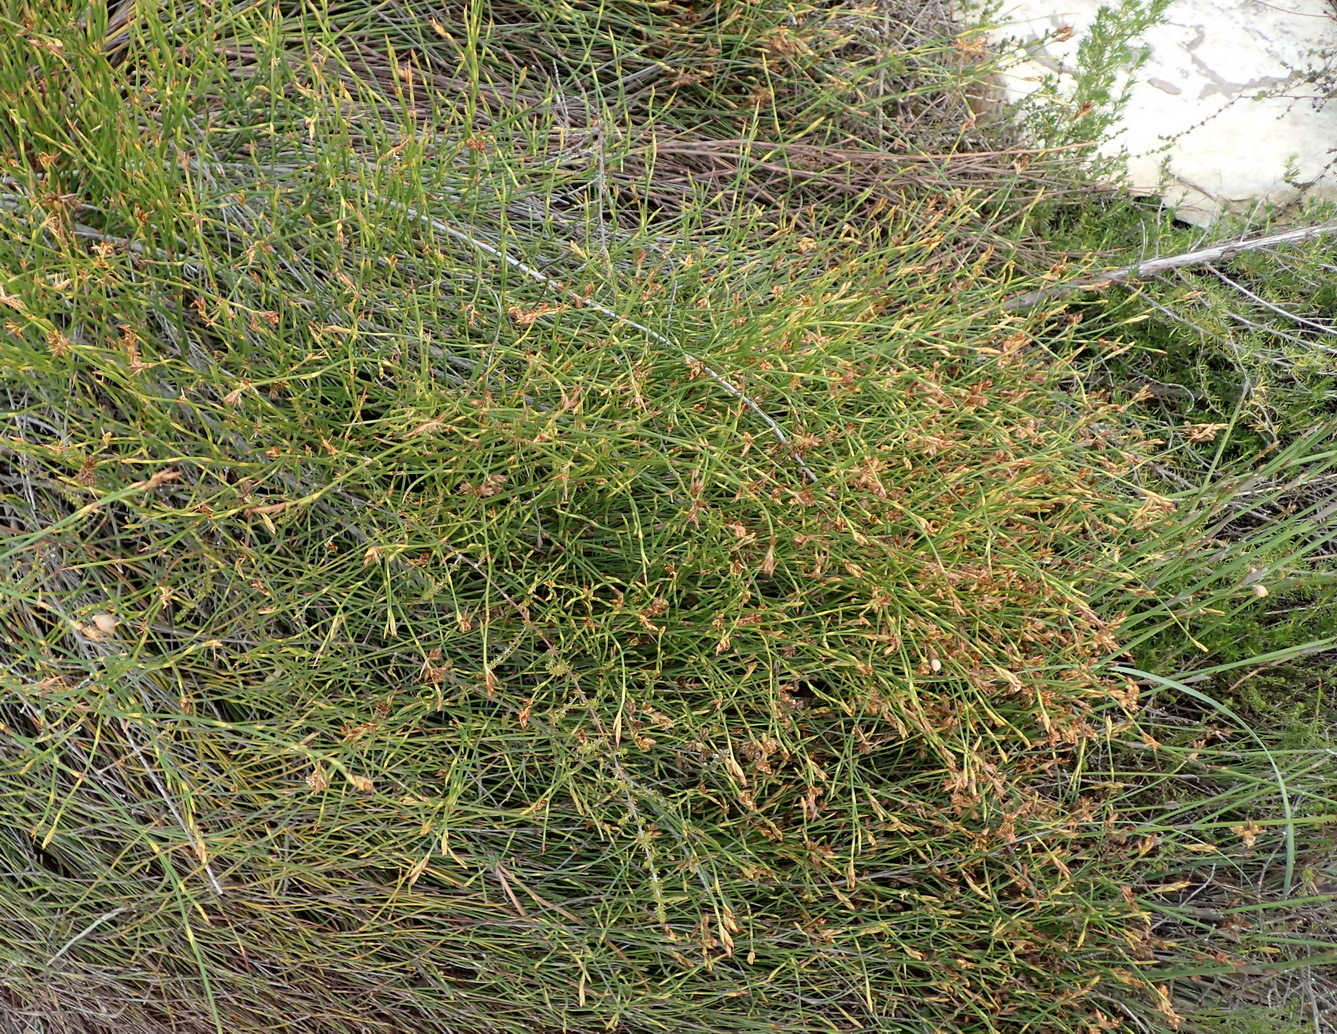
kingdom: Plantae
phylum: Tracheophyta
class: Liliopsida
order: Poales
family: Restionaceae
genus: Mastersiella
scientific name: Mastersiella spathulata
